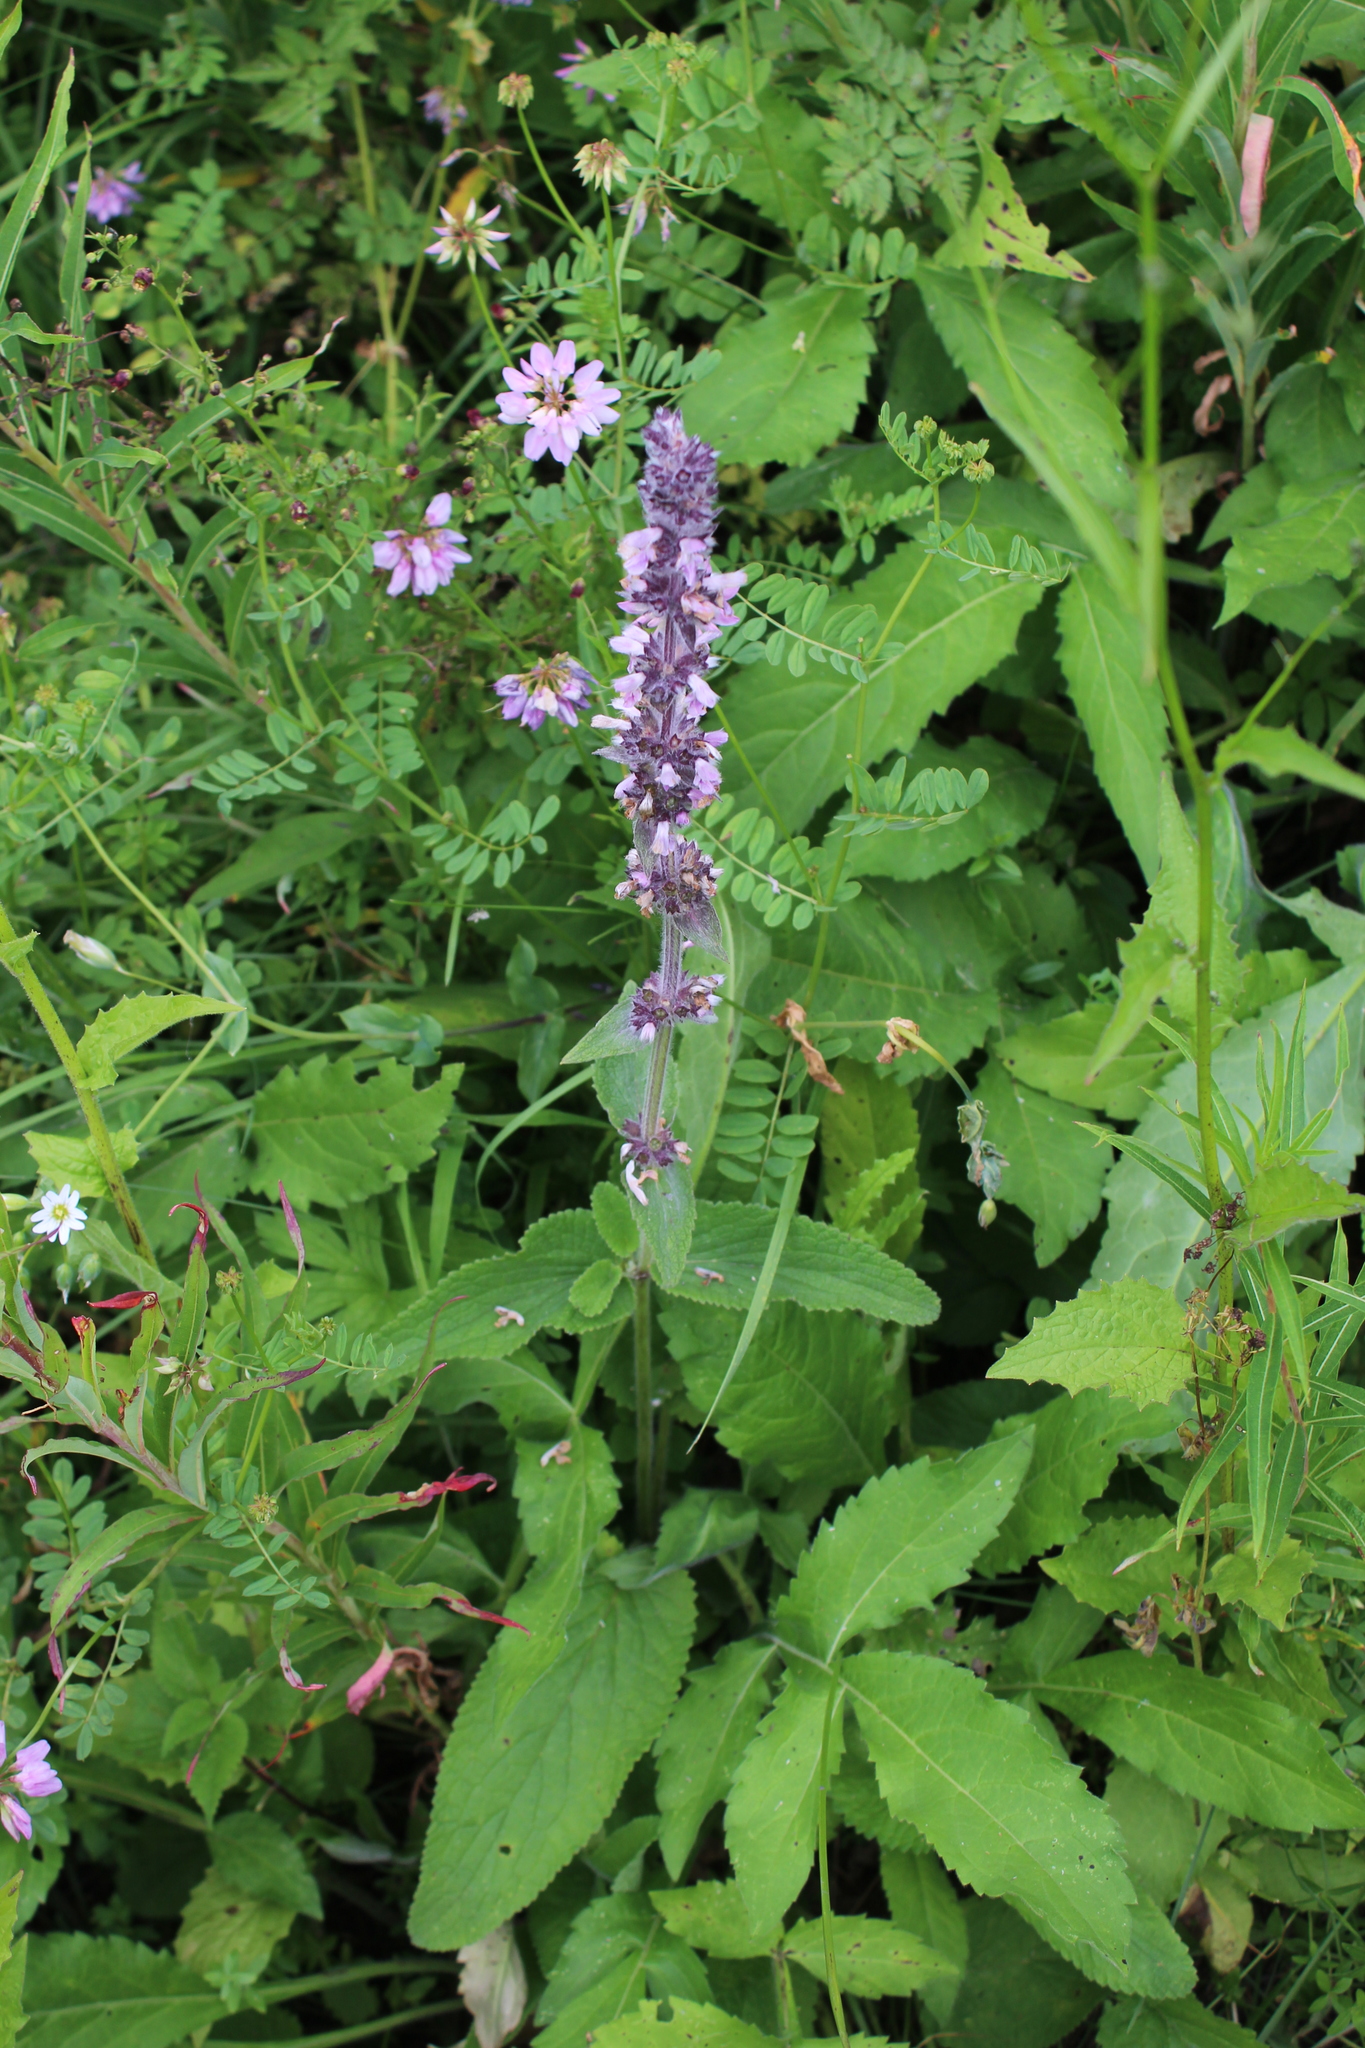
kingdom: Plantae
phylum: Tracheophyta
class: Magnoliopsida
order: Lamiales
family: Lamiaceae
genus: Stachys
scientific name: Stachys balansae
